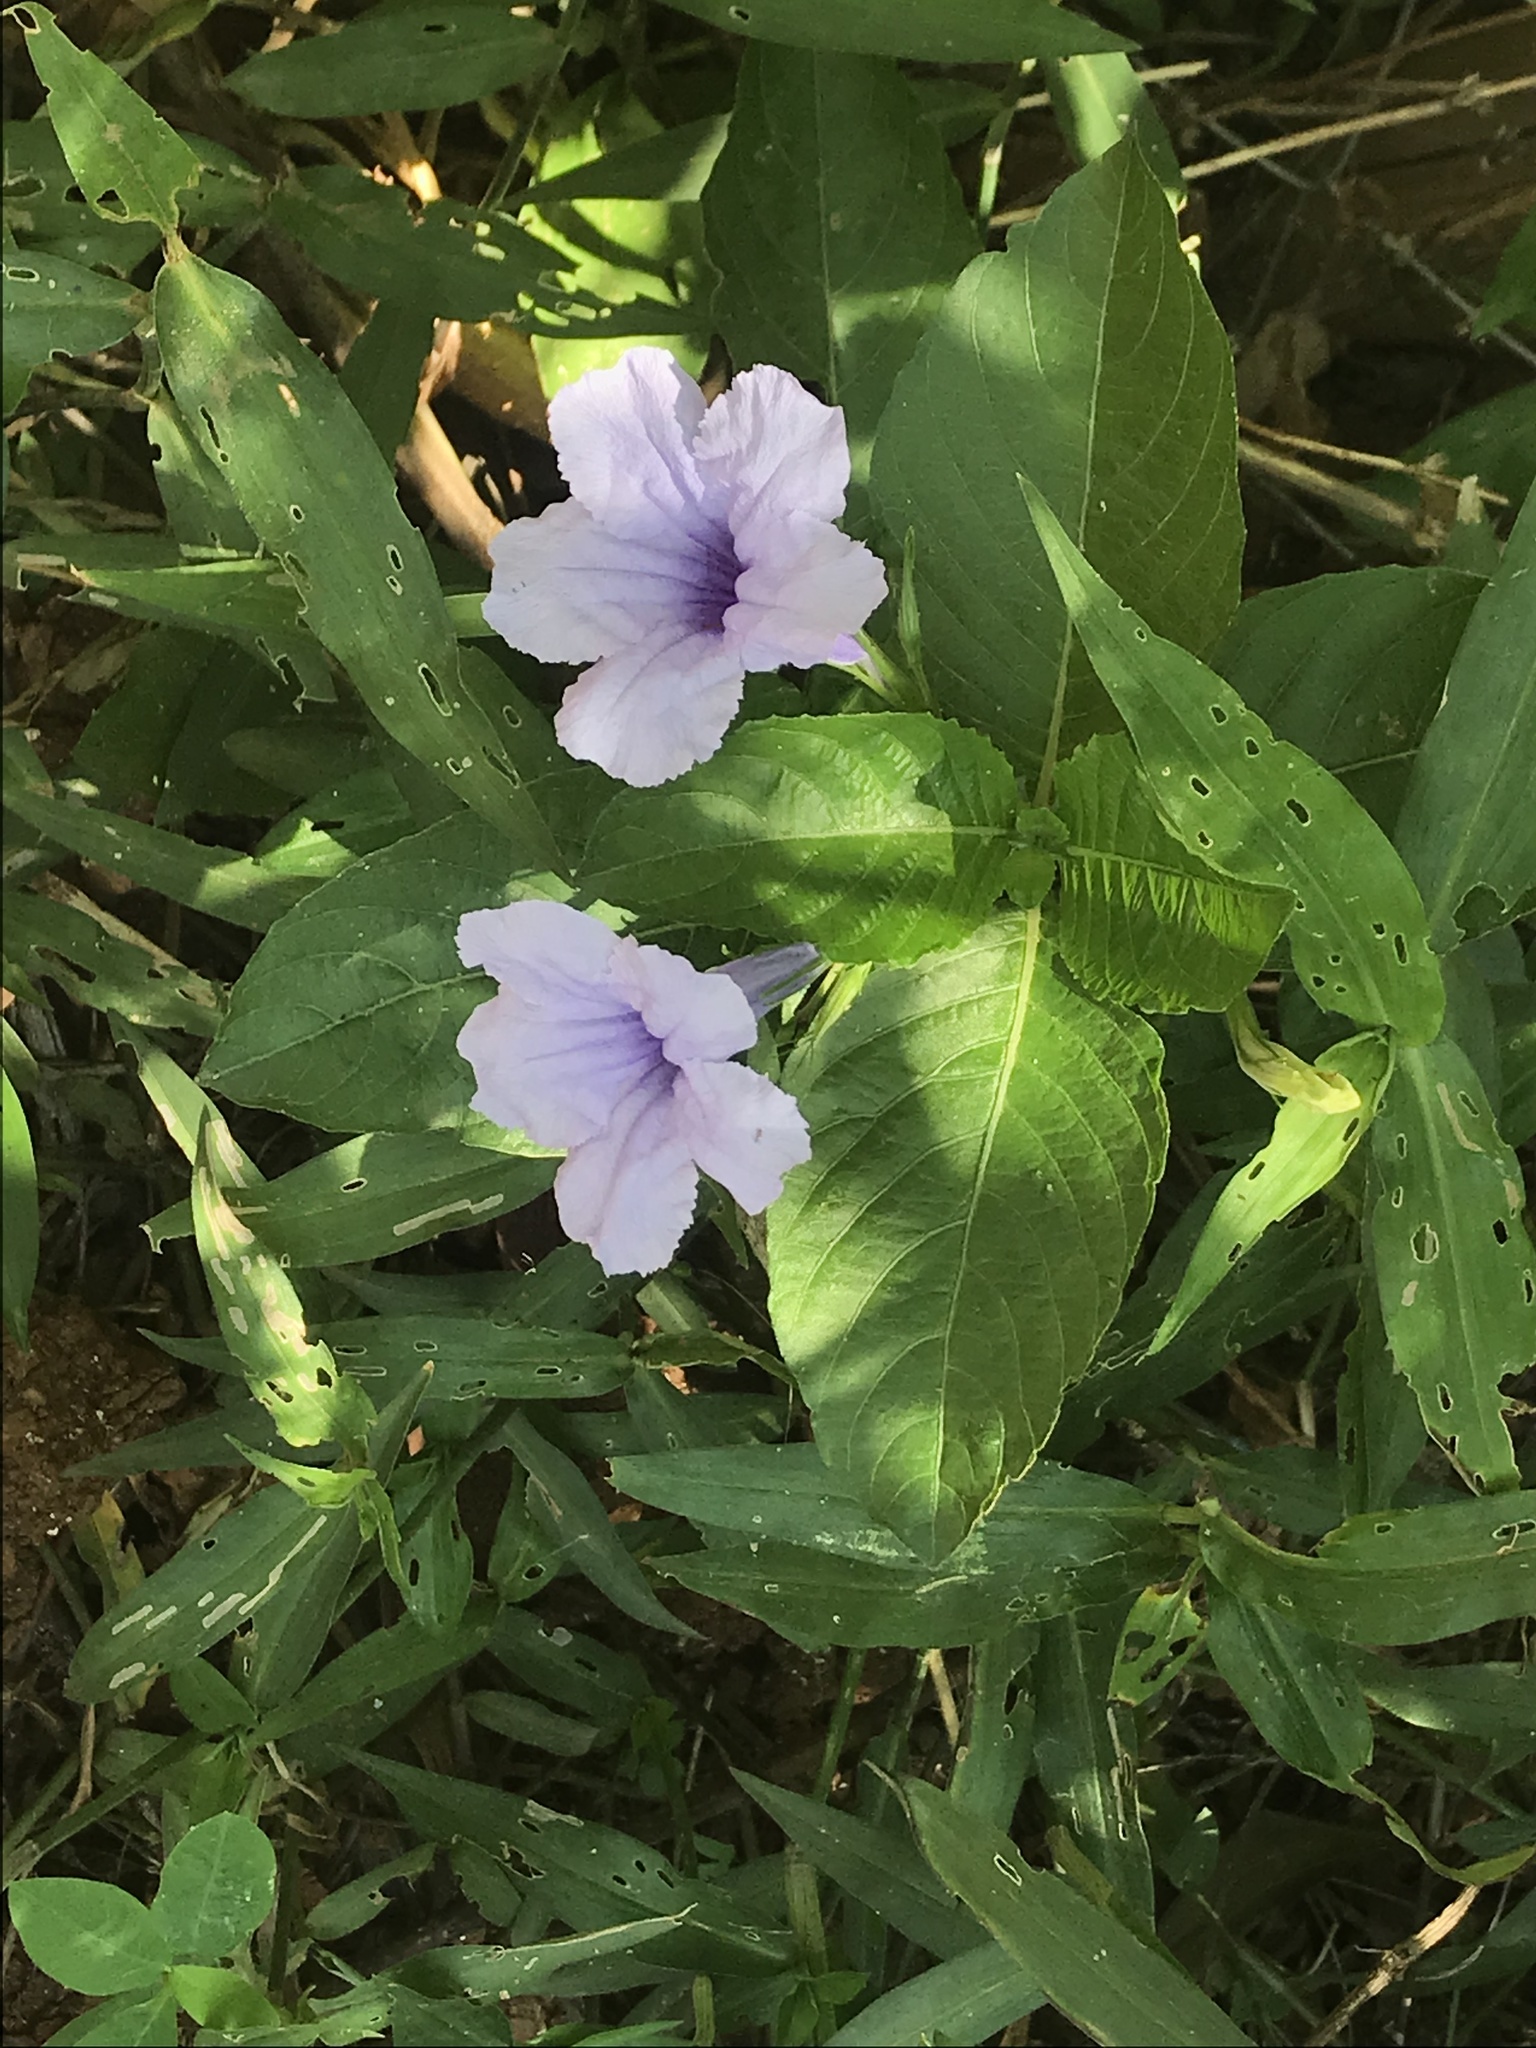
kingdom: Plantae
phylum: Tracheophyta
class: Magnoliopsida
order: Lamiales
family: Acanthaceae
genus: Ruellia
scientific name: Ruellia tuberosa
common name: Devil's bit
